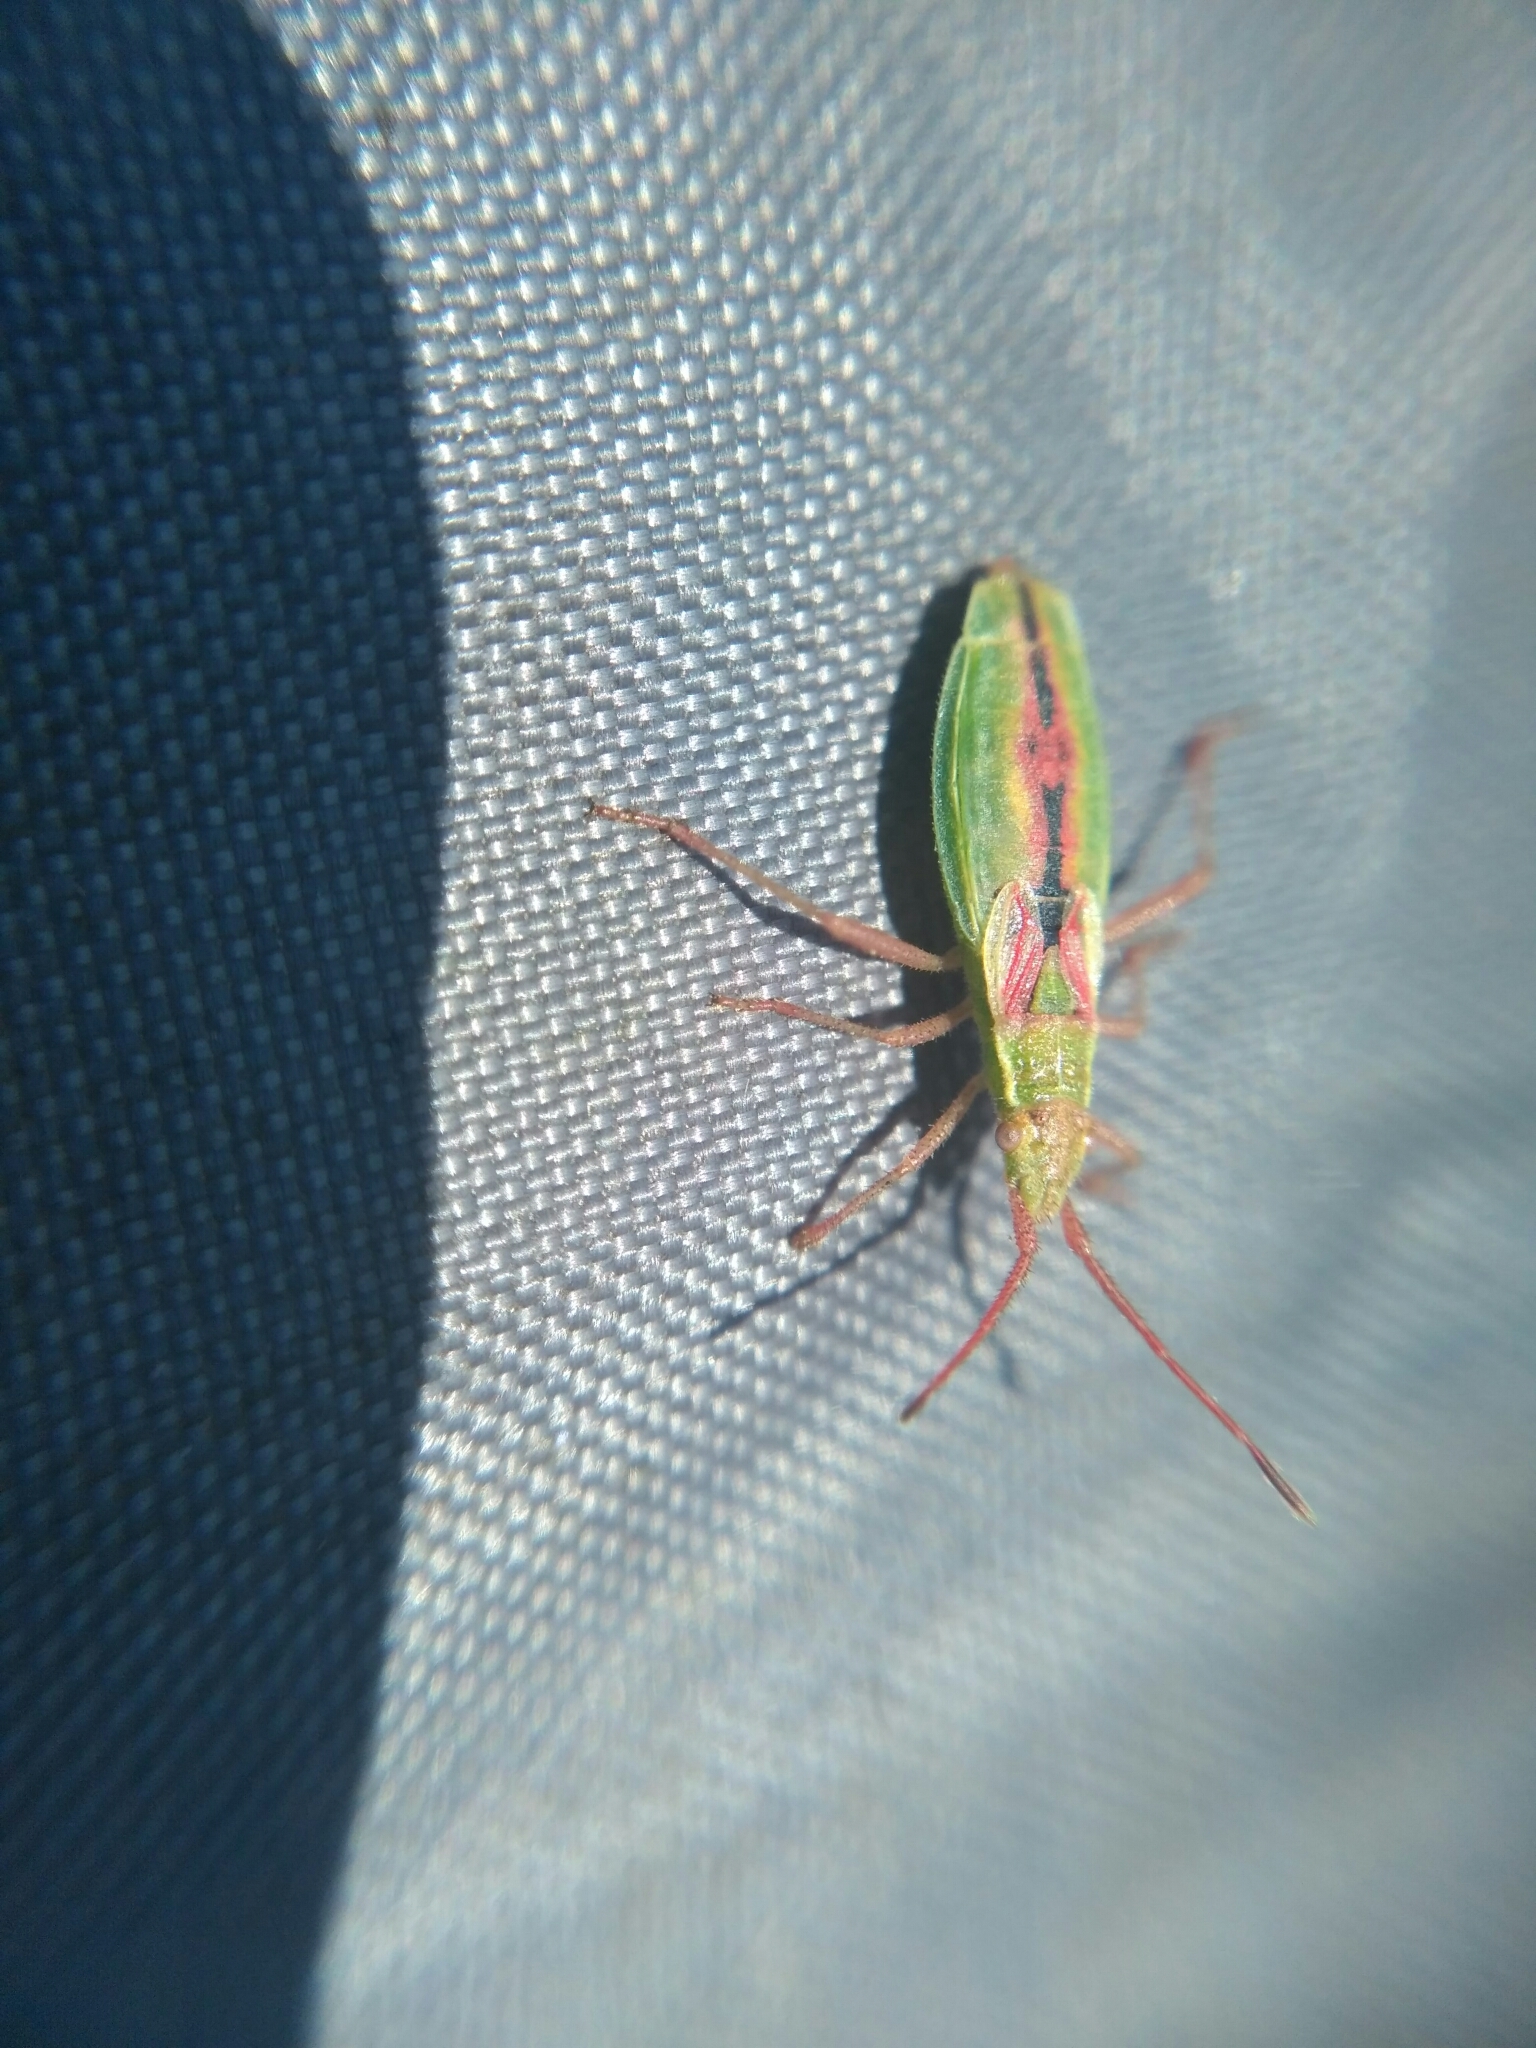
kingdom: Animalia
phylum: Arthropoda
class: Insecta
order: Hemiptera
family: Rhopalidae
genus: Myrmus
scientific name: Myrmus miriformis
